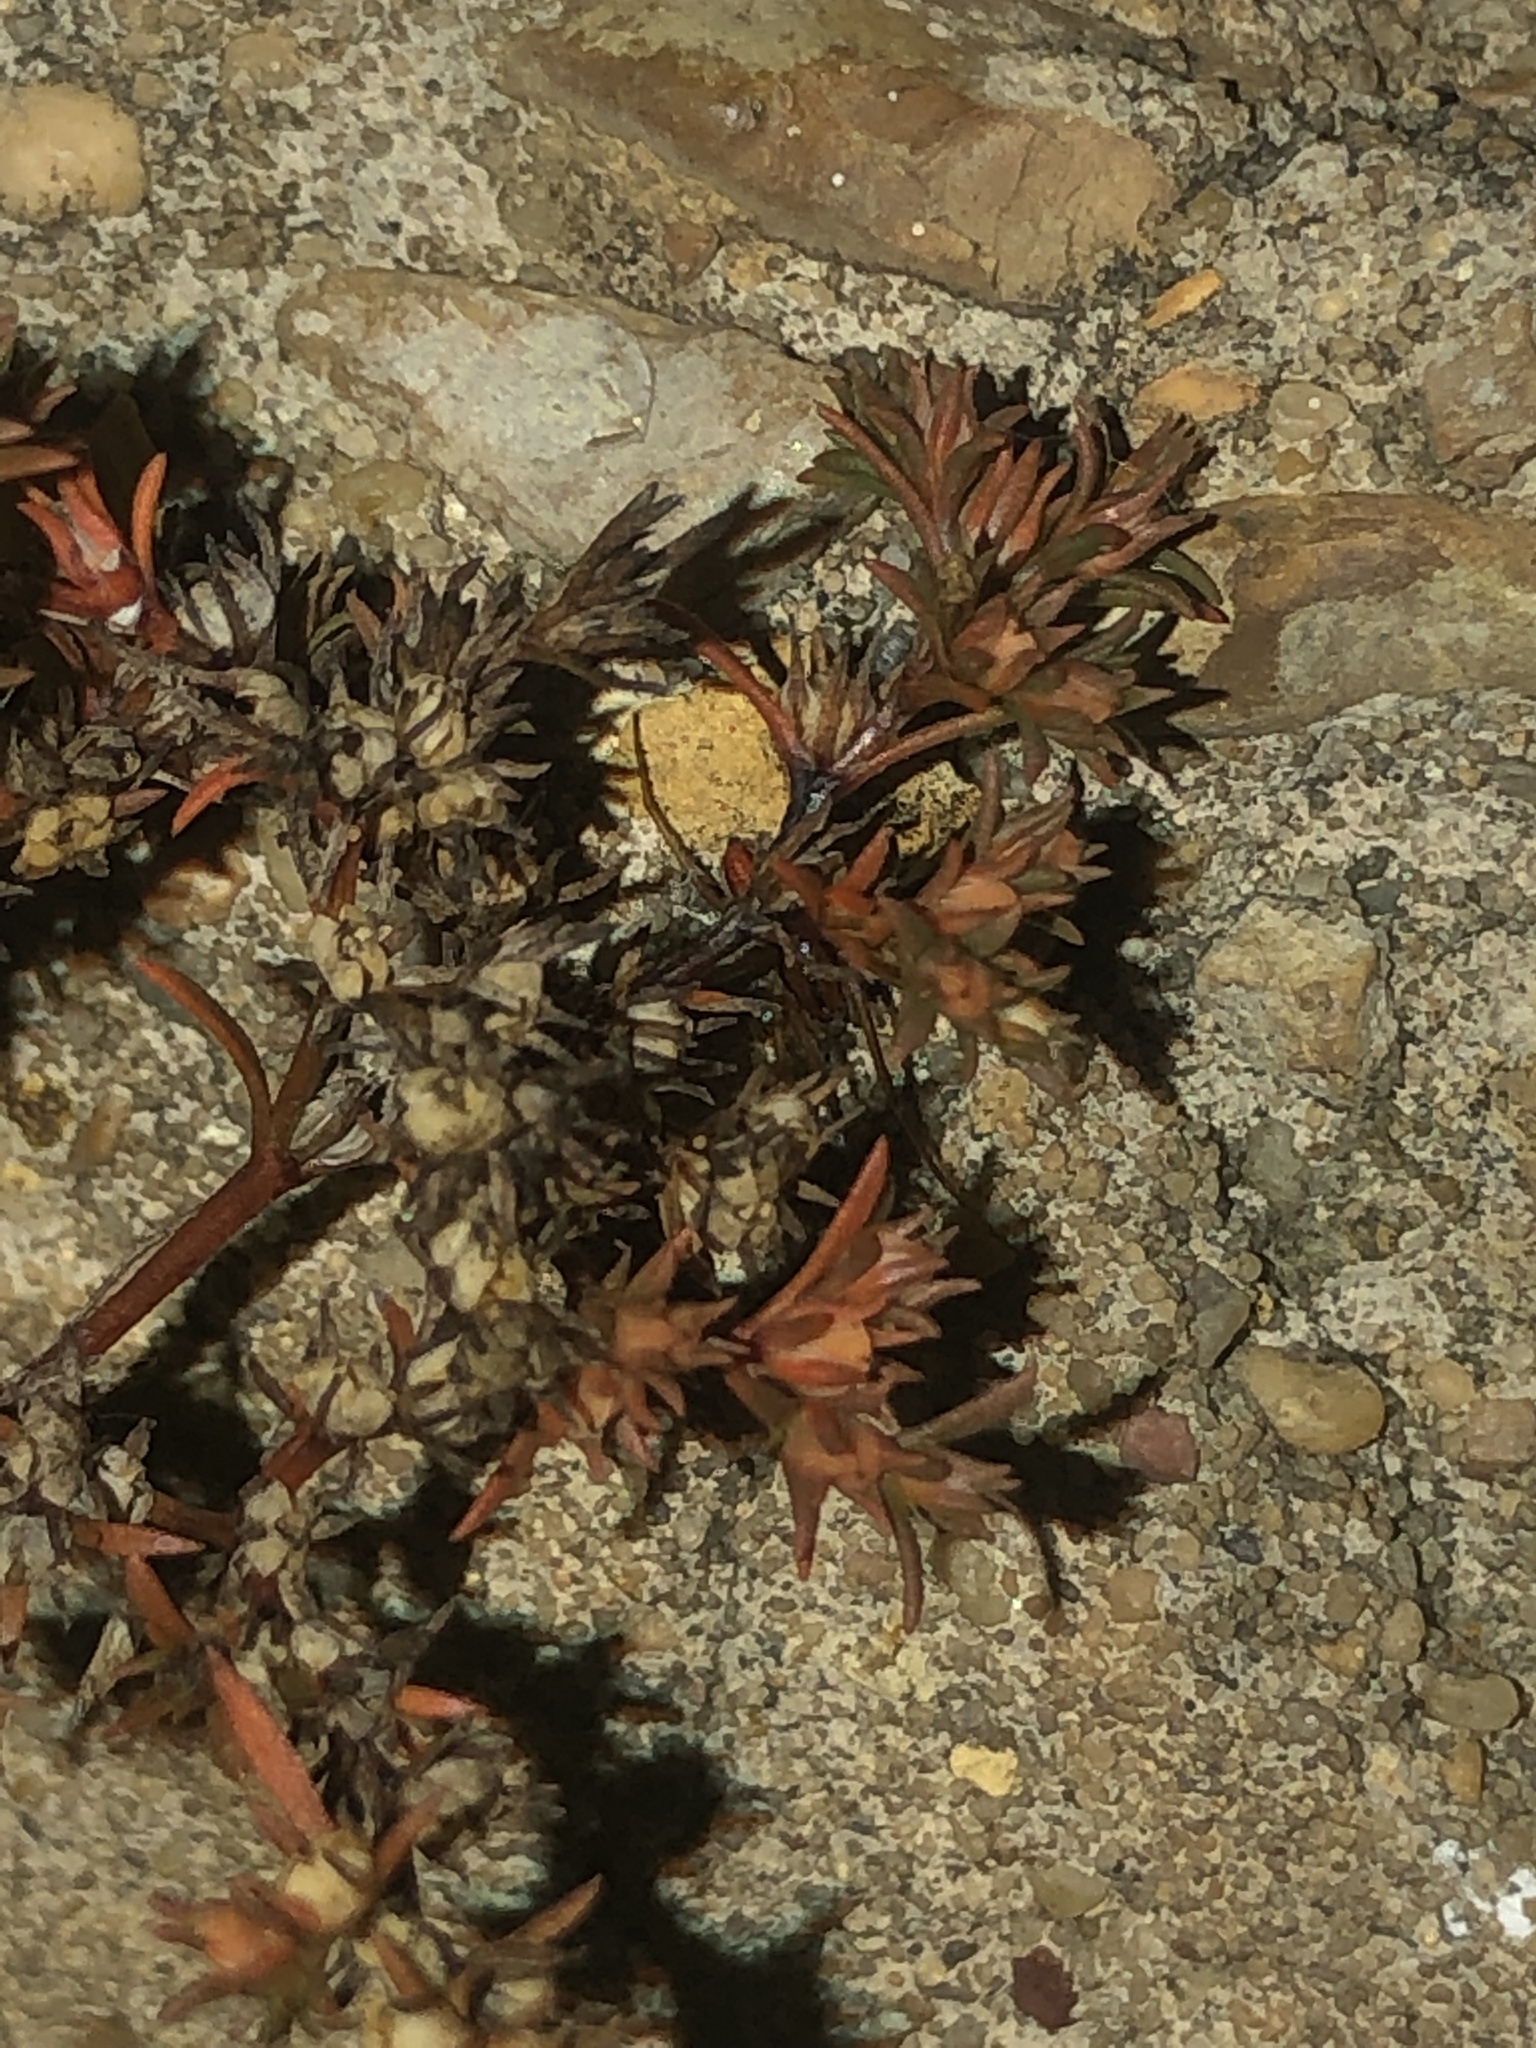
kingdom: Plantae
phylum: Tracheophyta
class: Magnoliopsida
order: Lamiales
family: Tetrachondraceae
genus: Polypremum
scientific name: Polypremum procumbens
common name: Juniper-leaf
